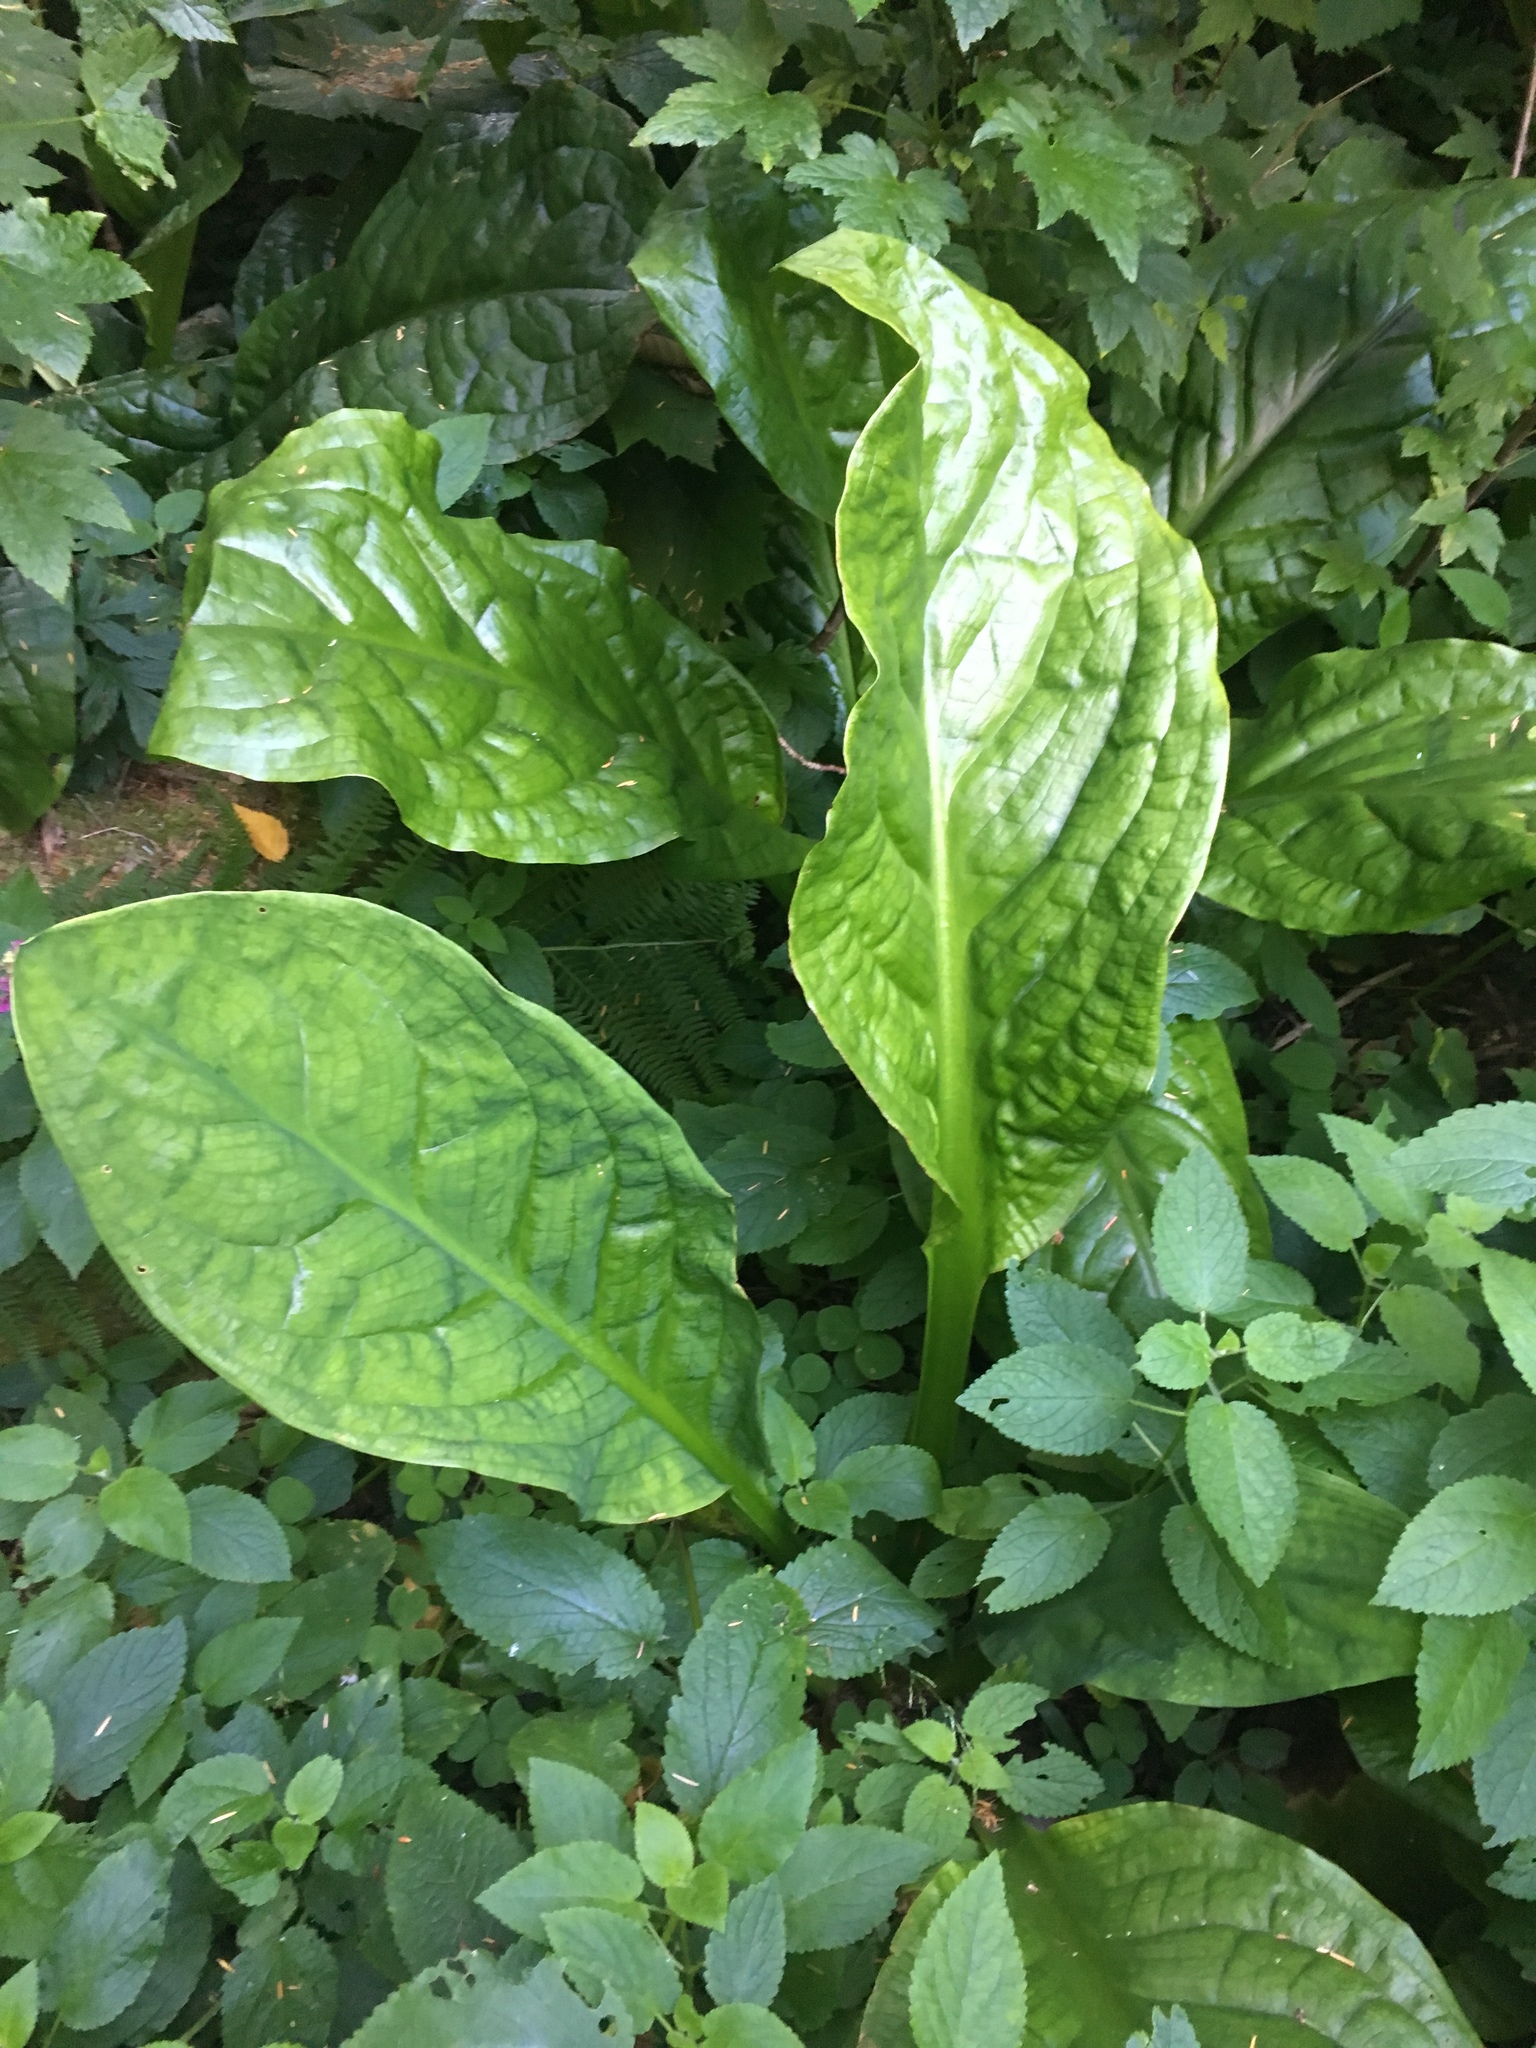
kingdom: Plantae
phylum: Tracheophyta
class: Liliopsida
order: Alismatales
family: Araceae
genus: Lysichiton
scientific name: Lysichiton americanus
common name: American skunk cabbage
